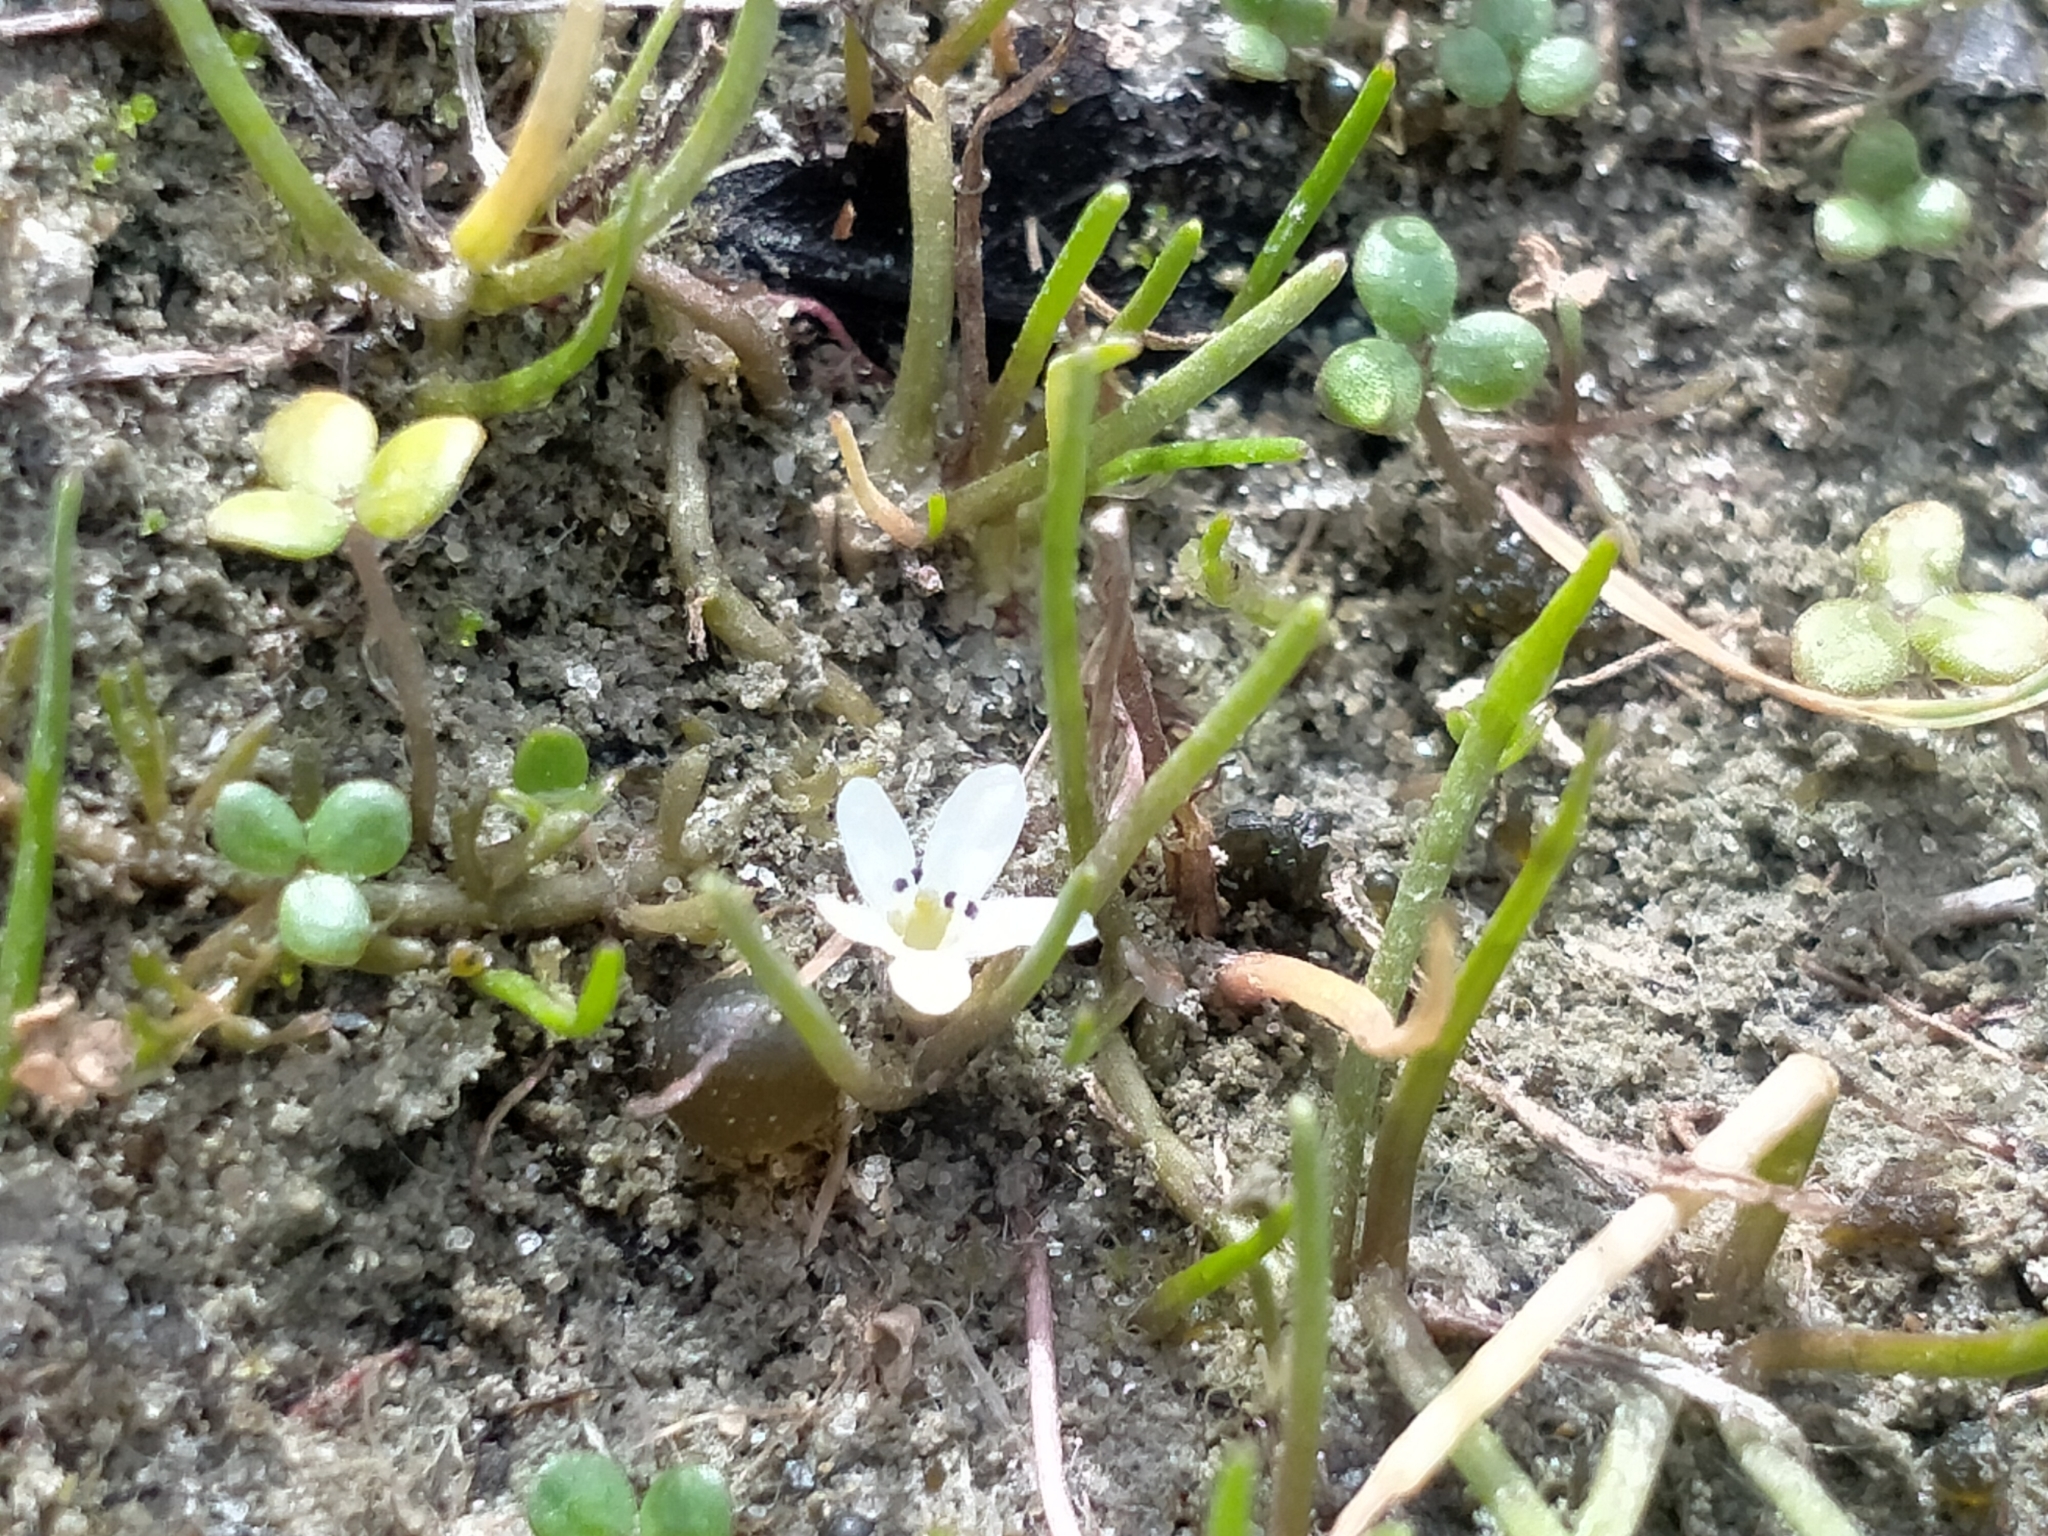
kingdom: Plantae
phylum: Tracheophyta
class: Magnoliopsida
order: Lamiales
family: Scrophulariaceae
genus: Limosella
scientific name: Limosella australis
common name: Welsh mudwort
